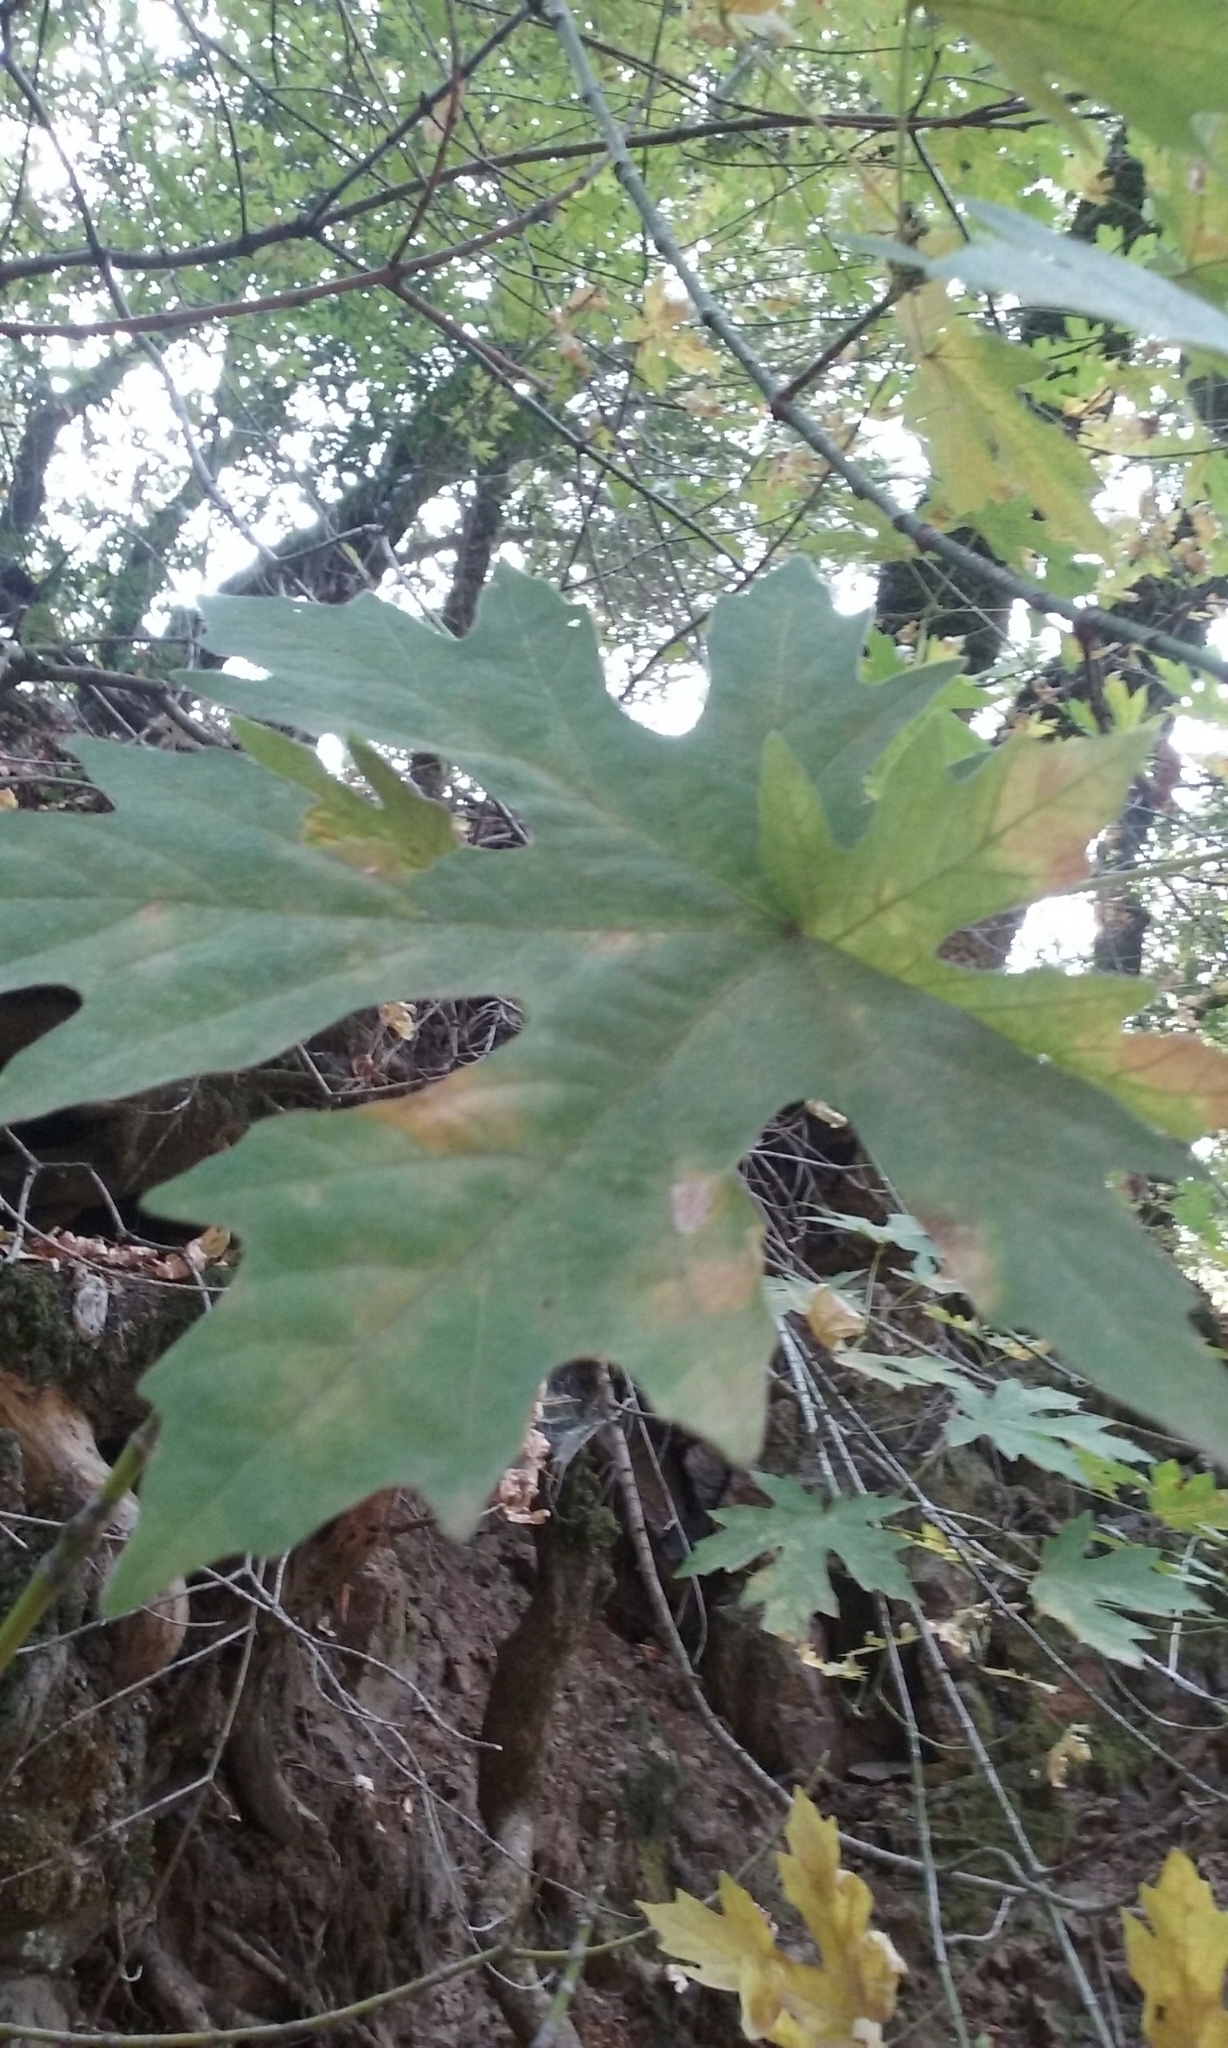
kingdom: Plantae
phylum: Tracheophyta
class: Magnoliopsida
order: Sapindales
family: Sapindaceae
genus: Acer
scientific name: Acer macrophyllum
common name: Oregon maple
